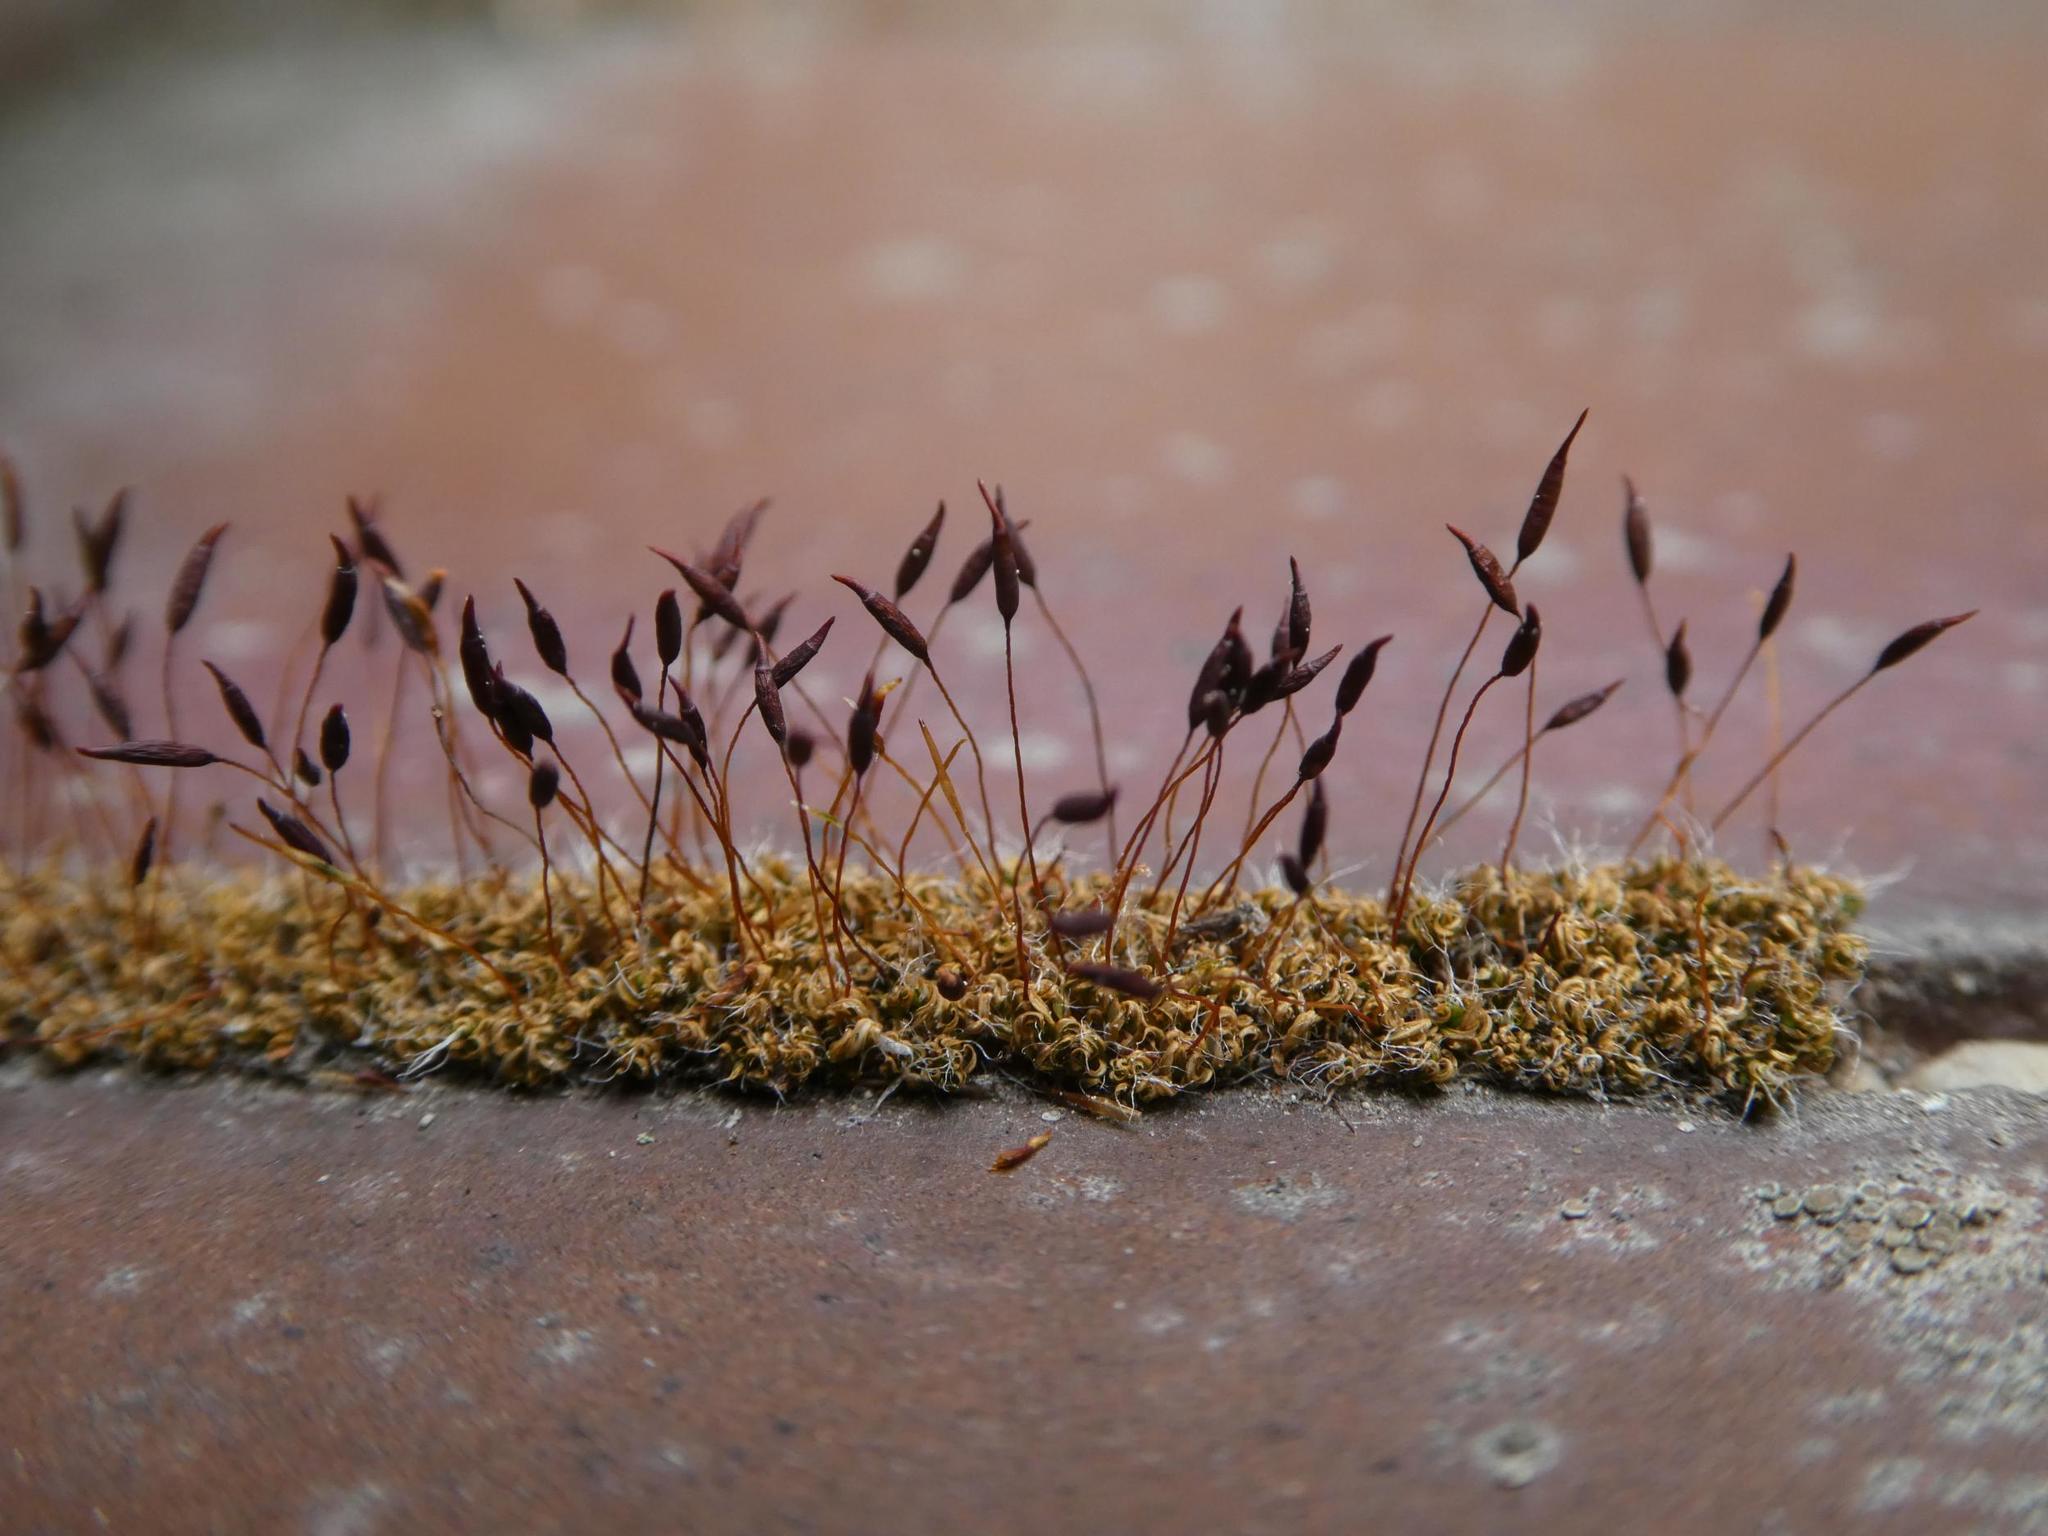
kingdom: Plantae
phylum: Bryophyta
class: Bryopsida
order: Pottiales
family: Pottiaceae
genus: Tortula
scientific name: Tortula muralis
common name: Wall screw-moss
